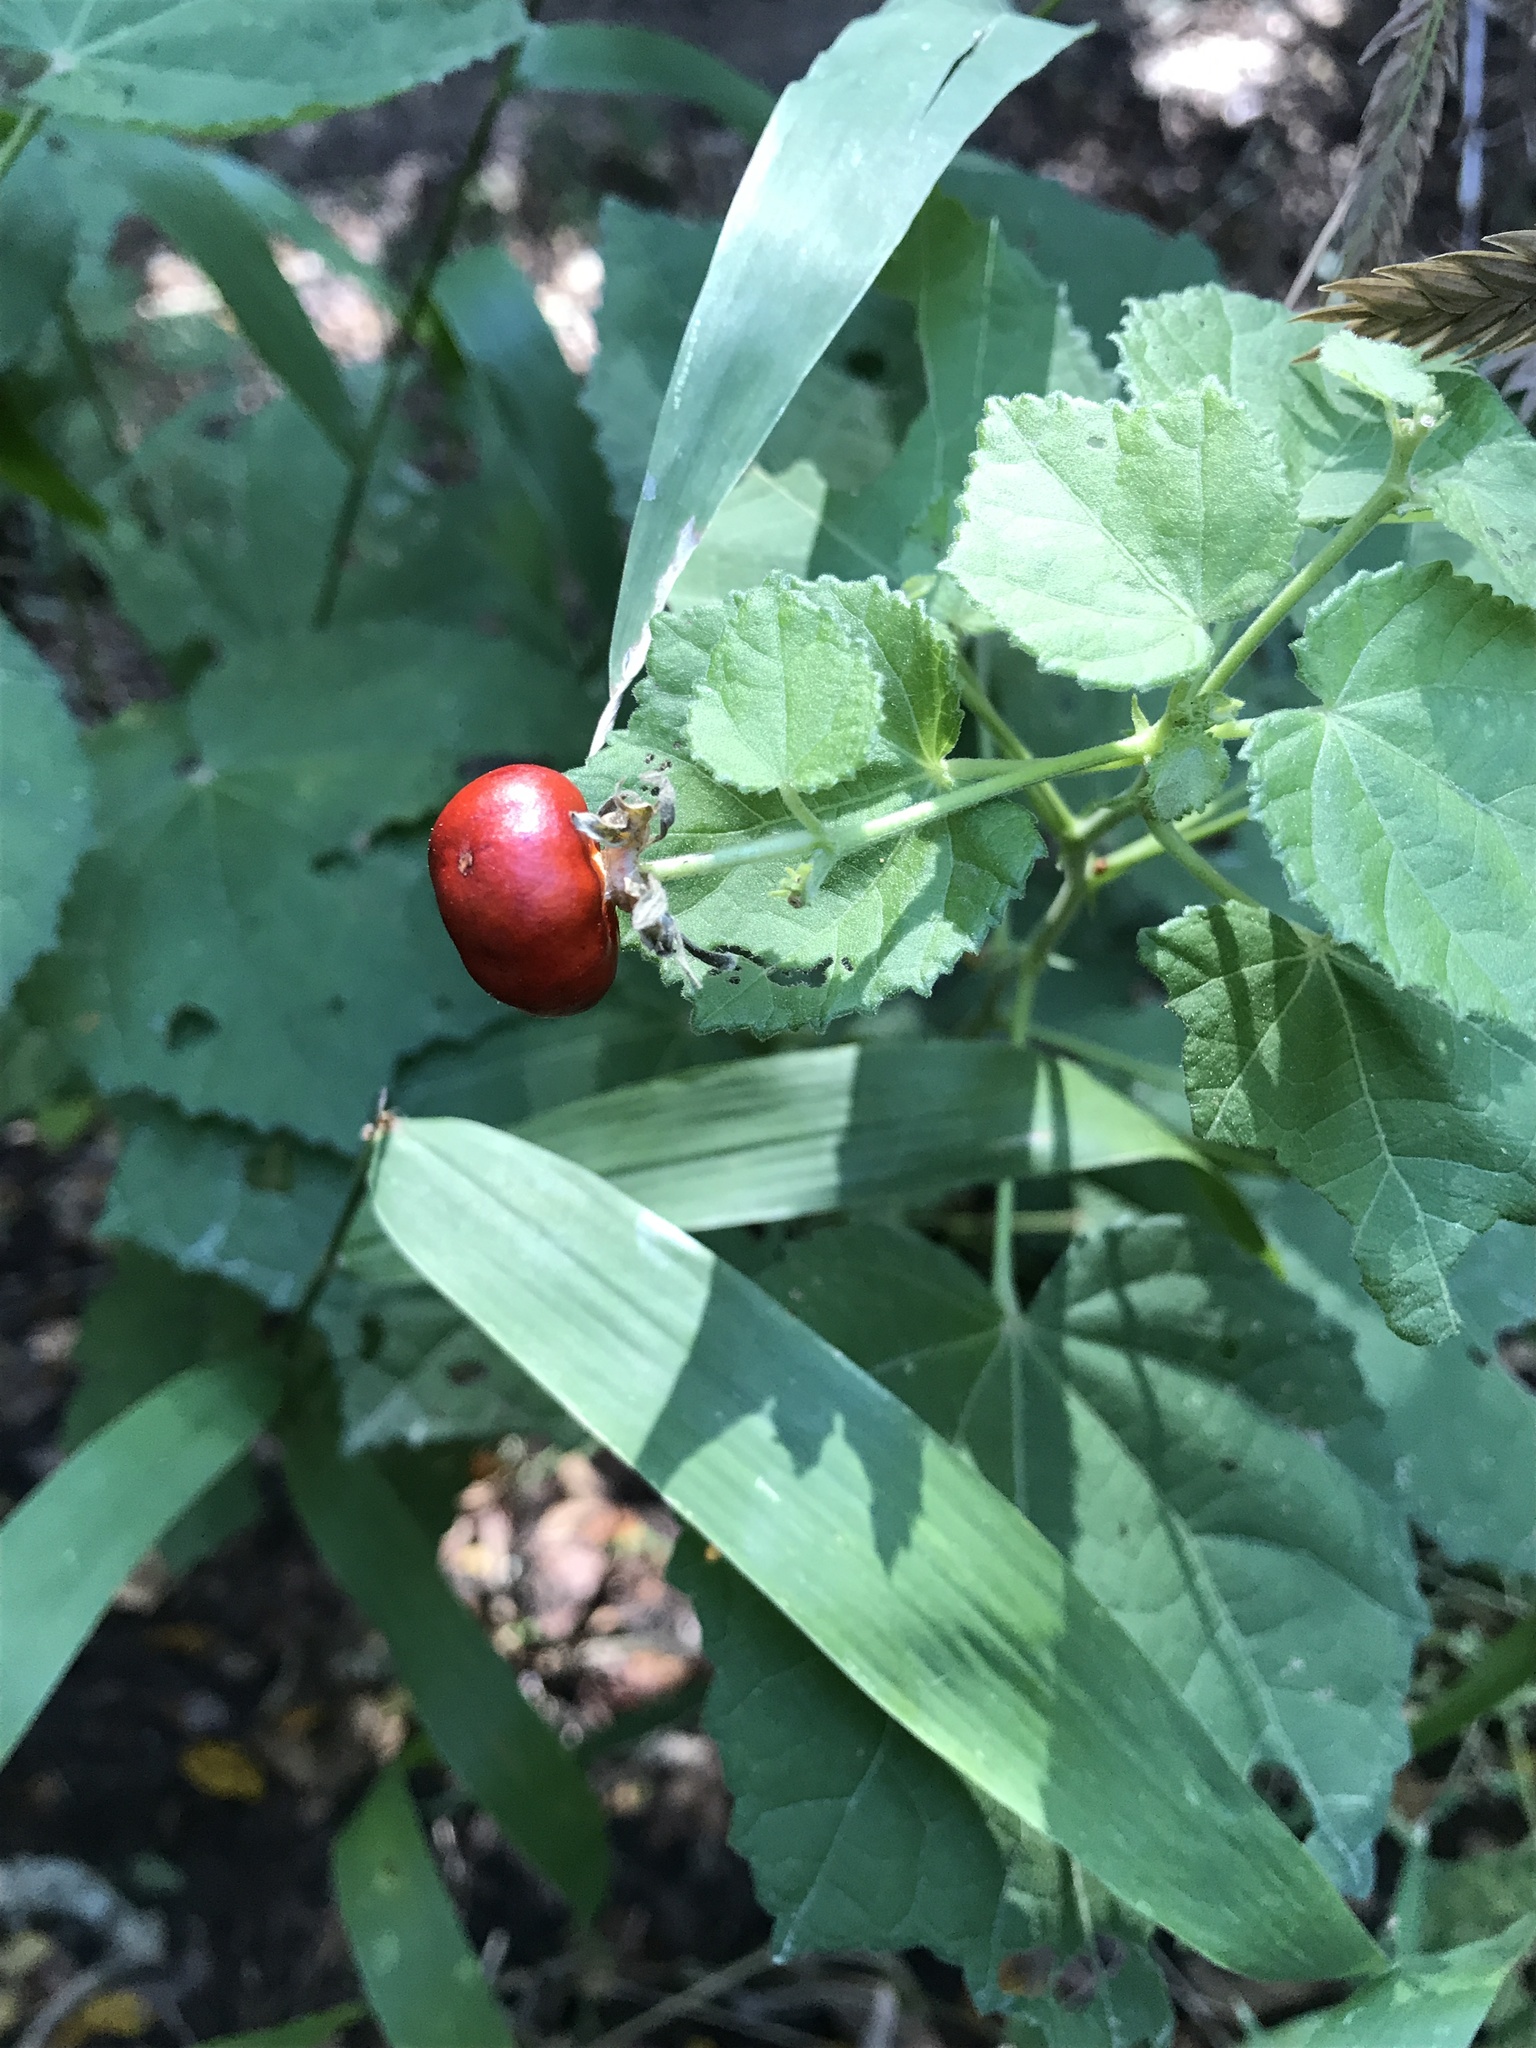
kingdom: Plantae
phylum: Tracheophyta
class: Magnoliopsida
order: Malvales
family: Malvaceae
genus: Malvaviscus
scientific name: Malvaviscus arboreus
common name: Wax mallow
